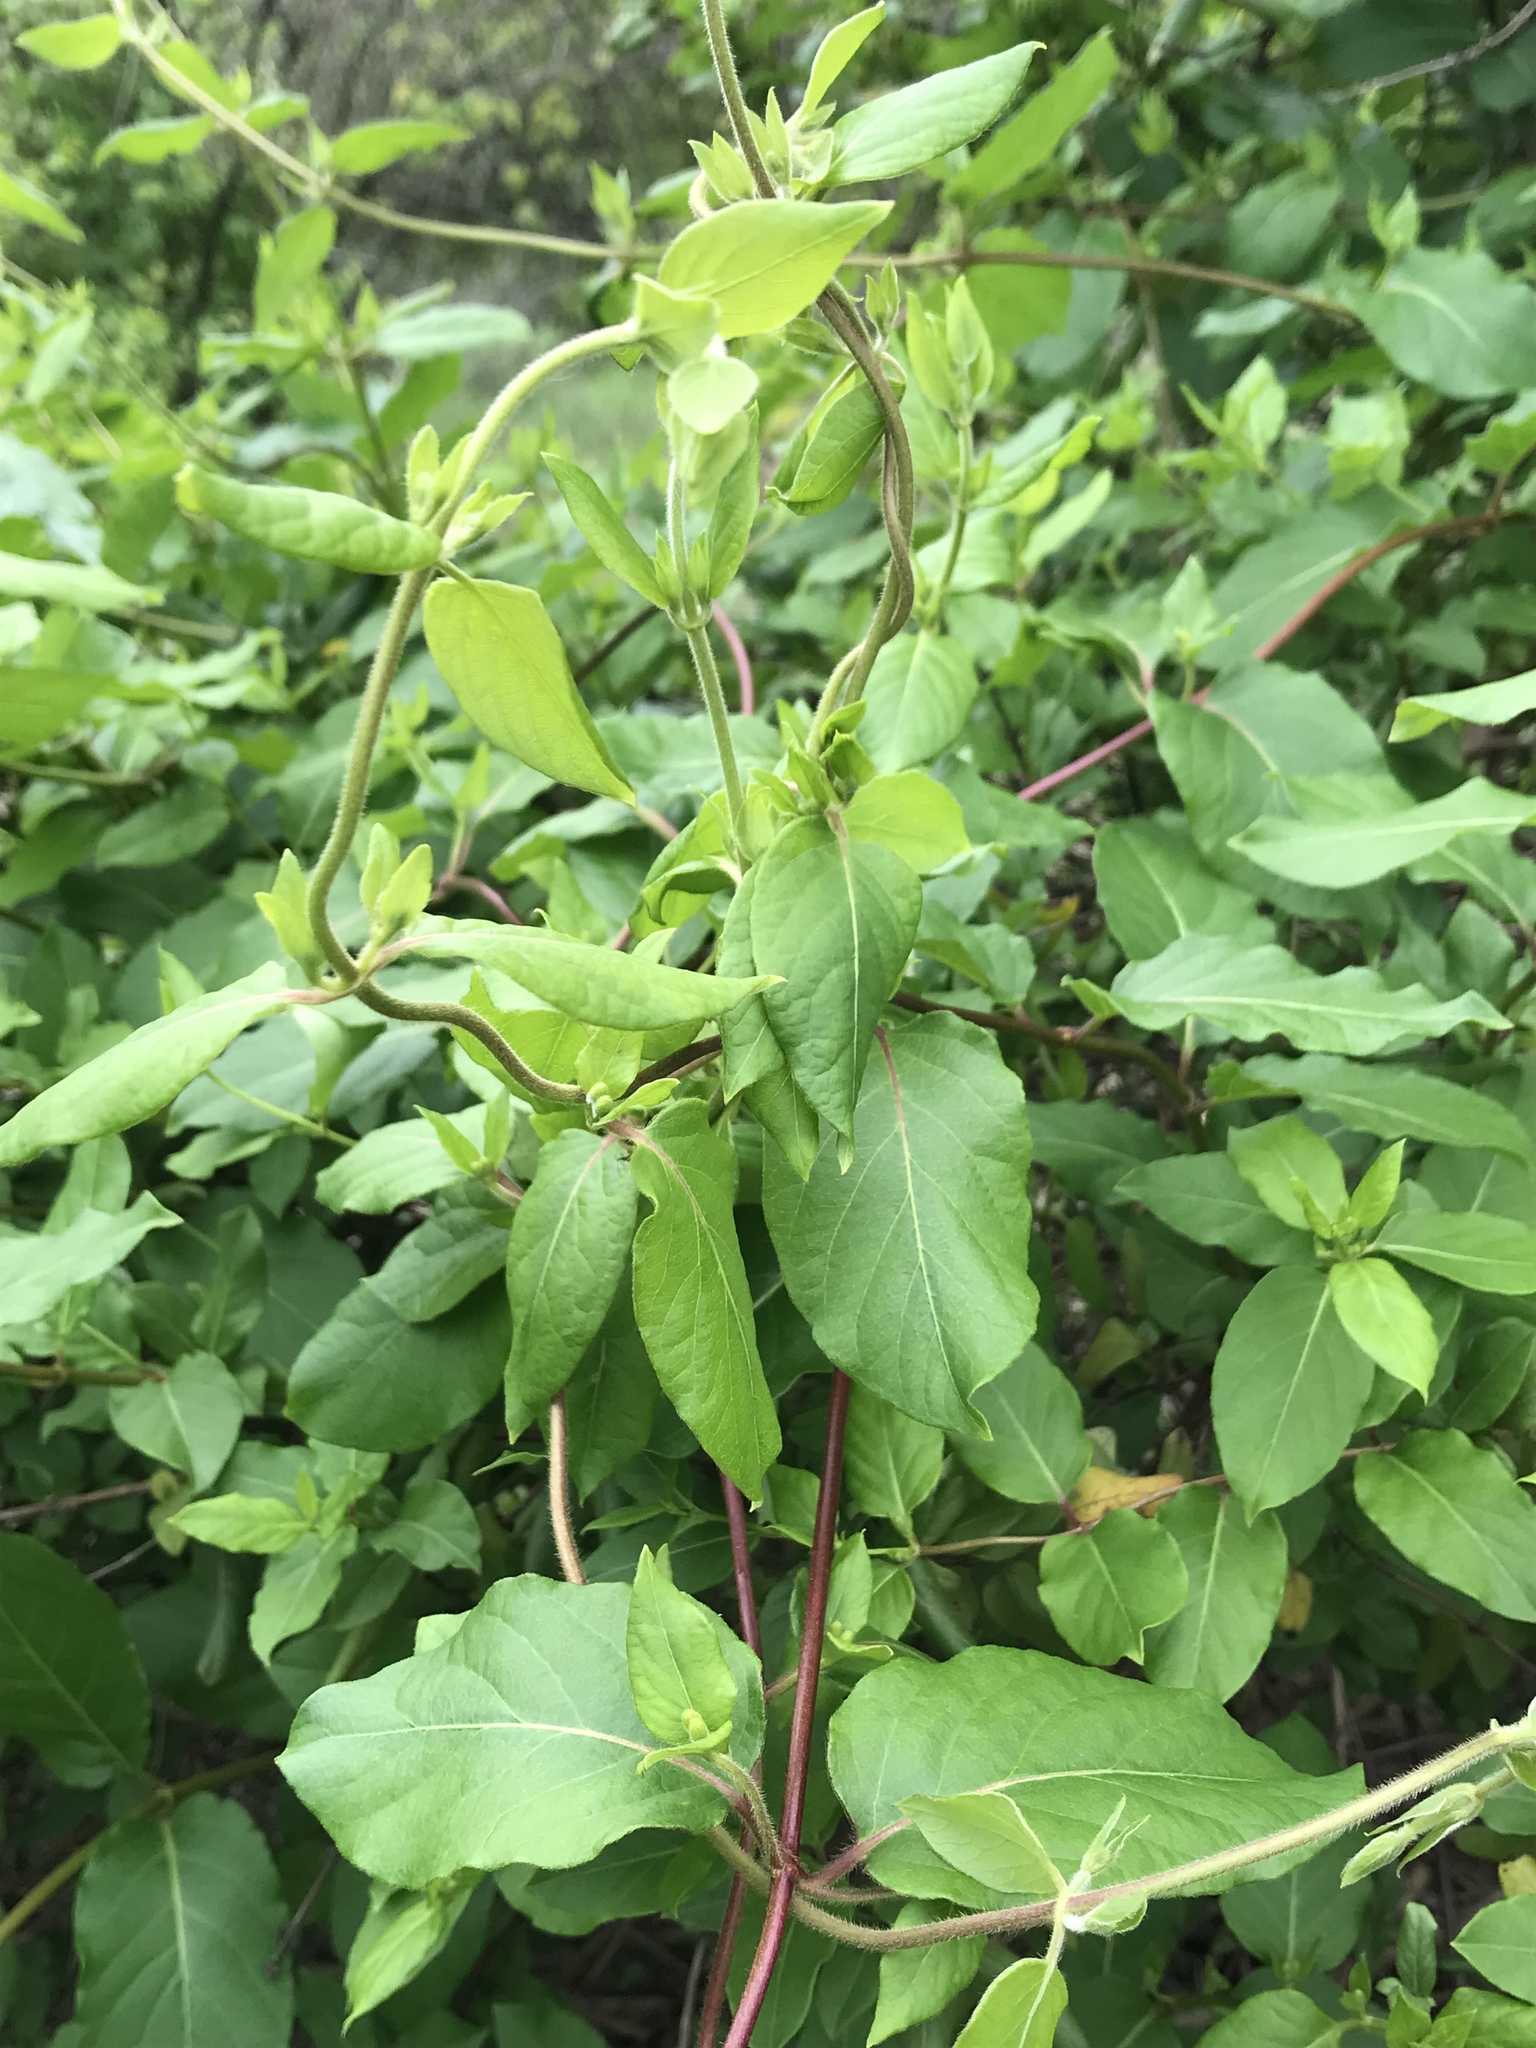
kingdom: Plantae
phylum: Tracheophyta
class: Magnoliopsida
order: Dipsacales
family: Caprifoliaceae
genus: Lonicera
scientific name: Lonicera japonica
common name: Japanese honeysuckle
